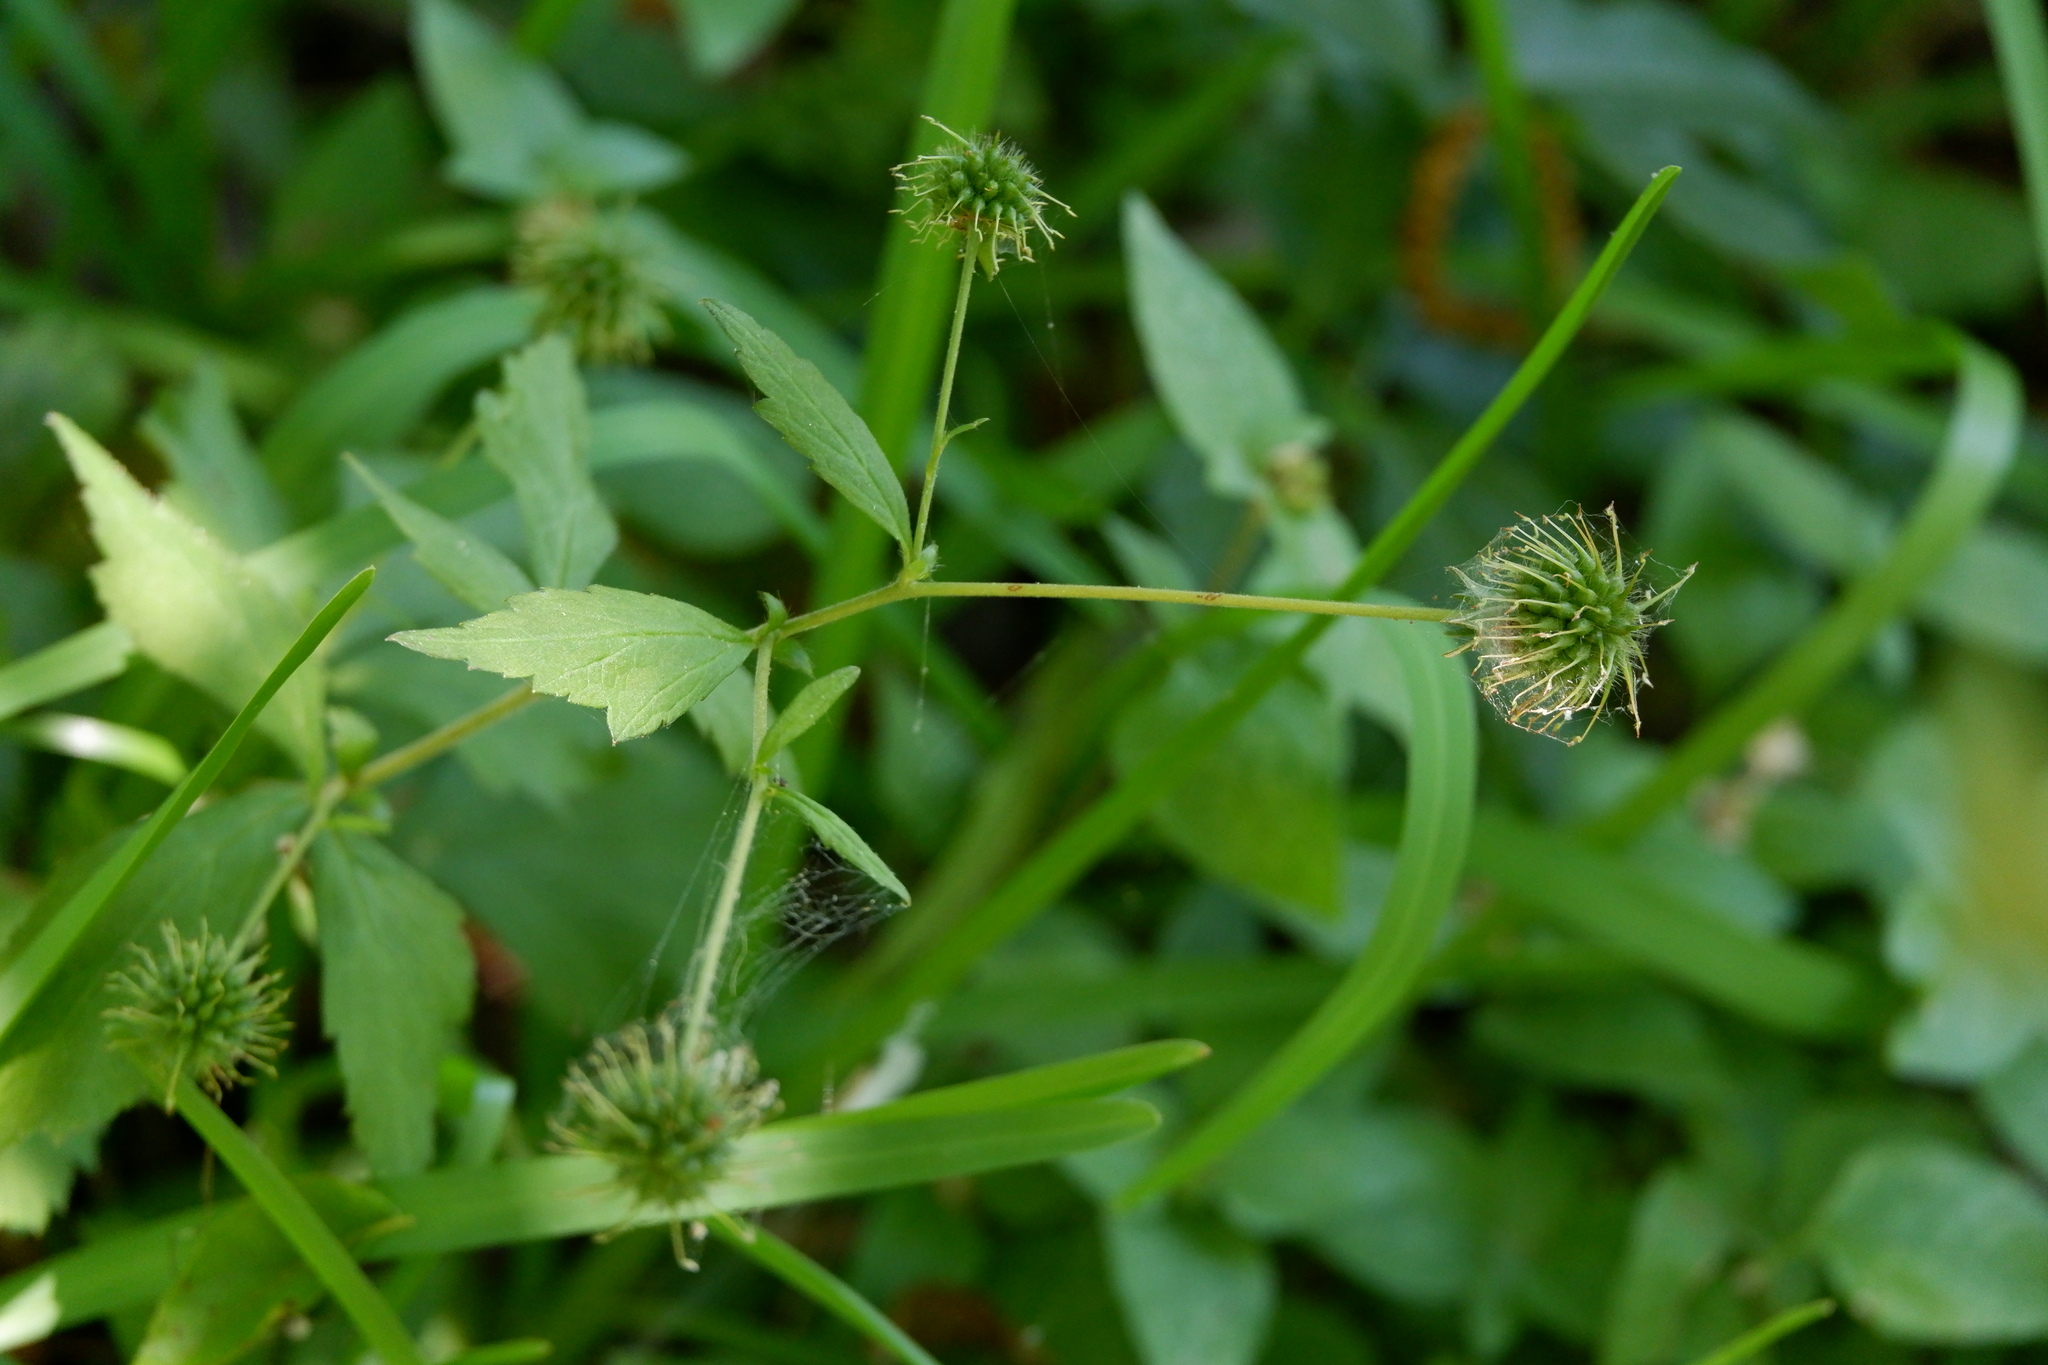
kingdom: Plantae
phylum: Tracheophyta
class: Magnoliopsida
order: Rosales
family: Rosaceae
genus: Geum
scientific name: Geum canadense
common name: White avens
